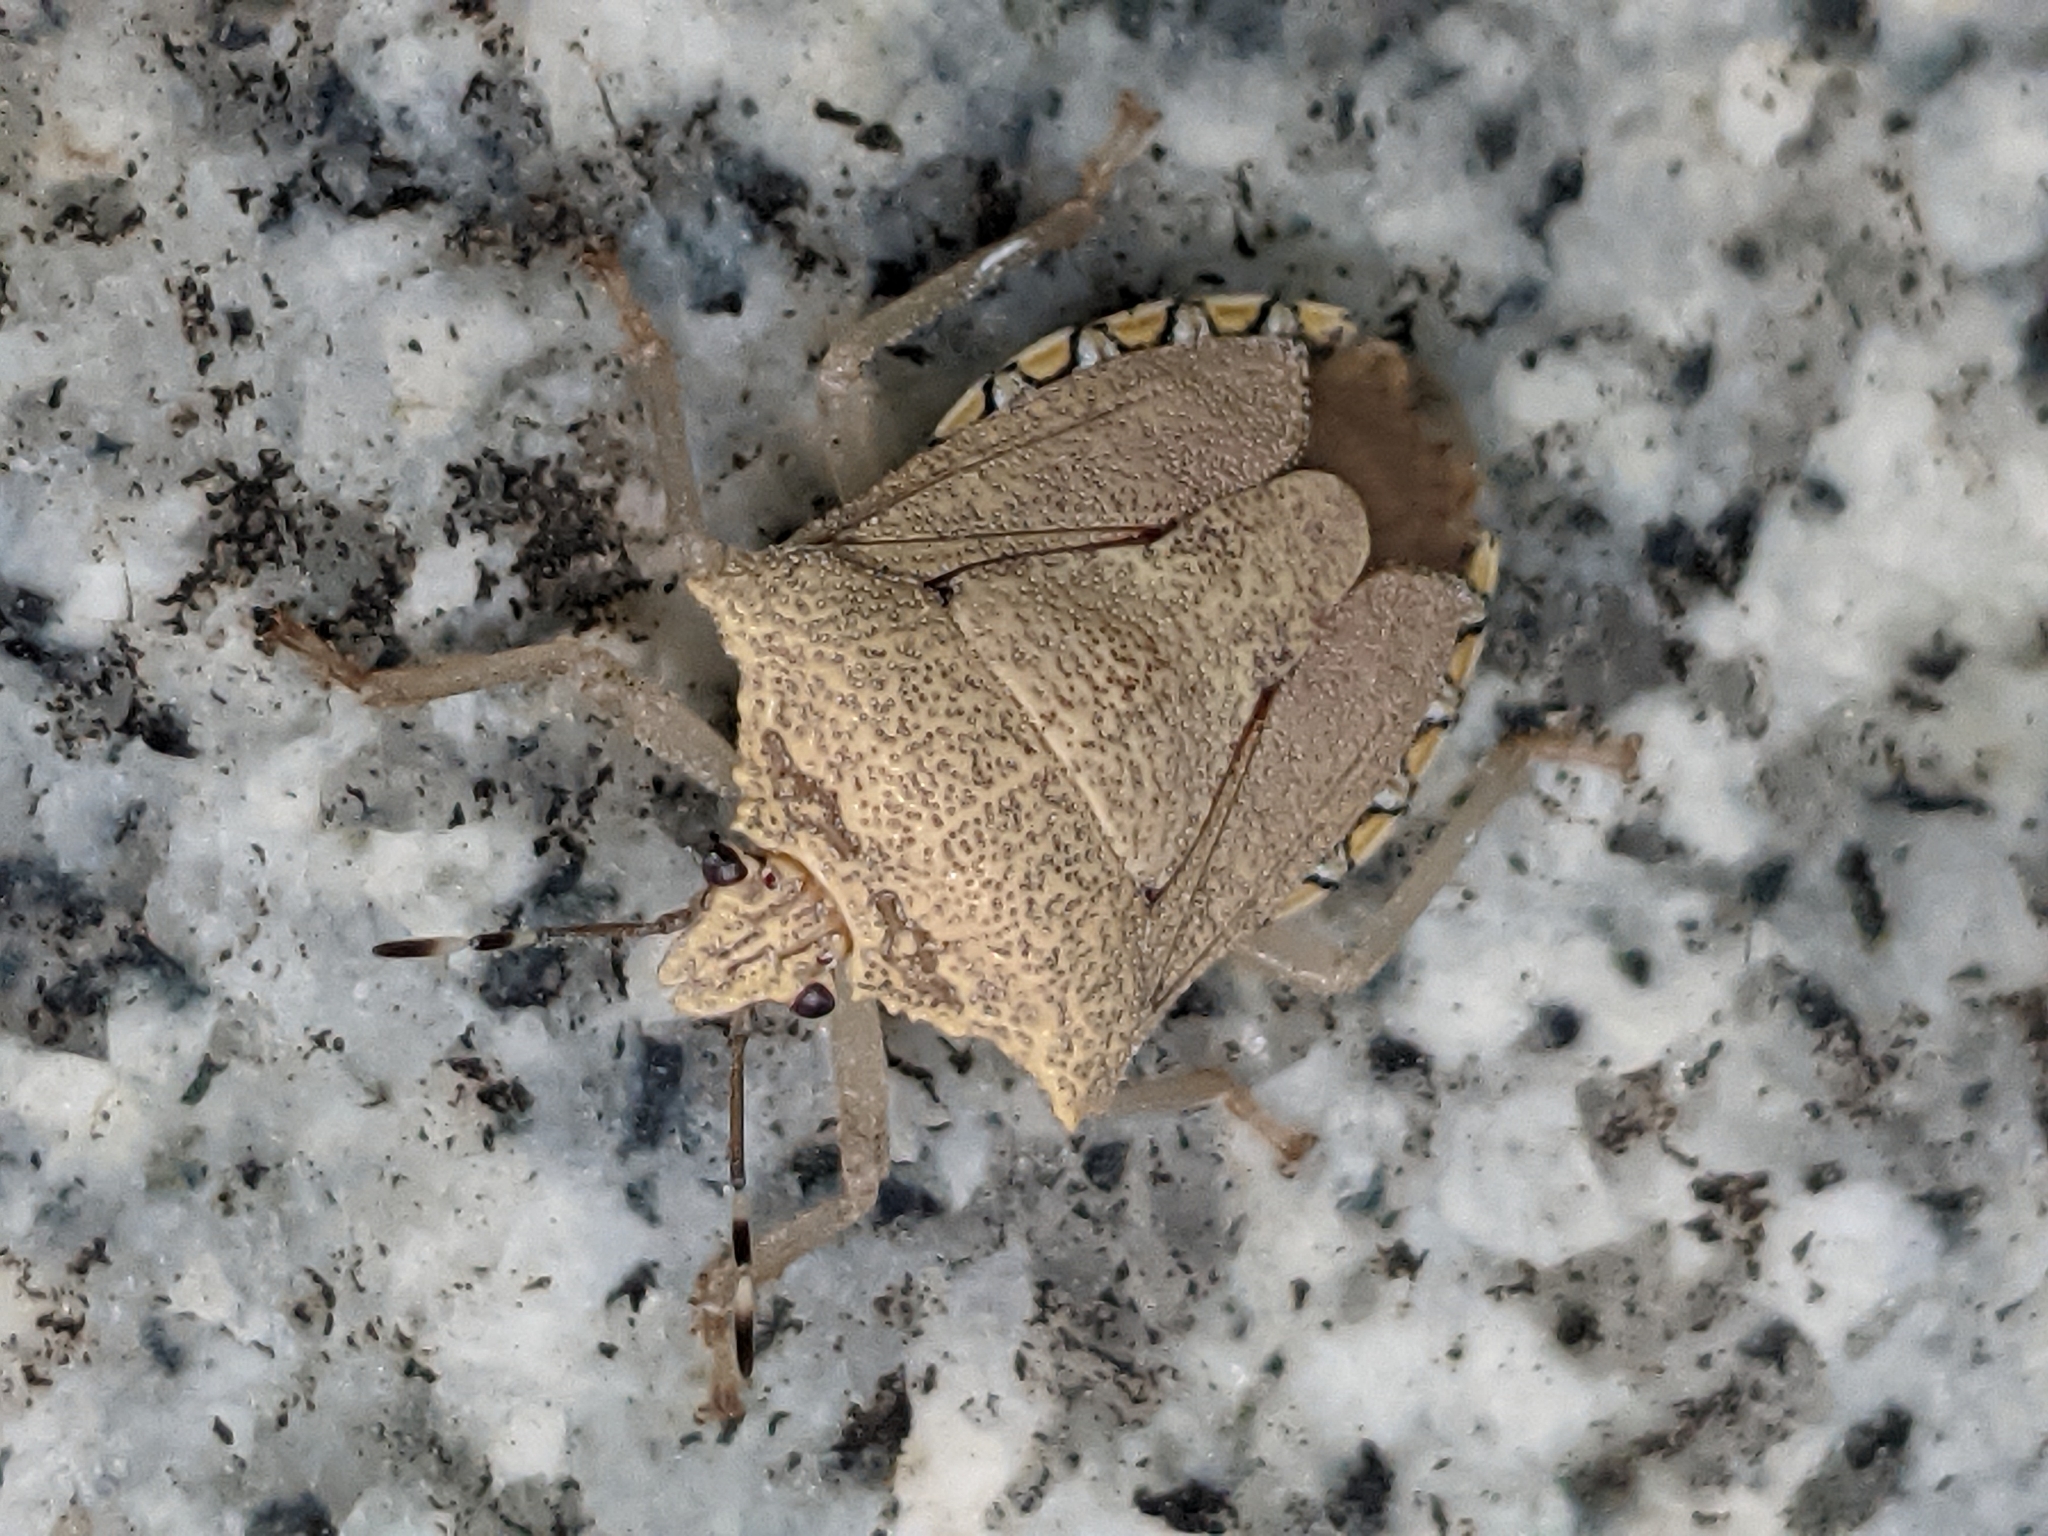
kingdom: Animalia
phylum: Arthropoda
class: Insecta
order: Hemiptera
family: Pentatomidae
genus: Degonetus
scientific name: Degonetus serratus
